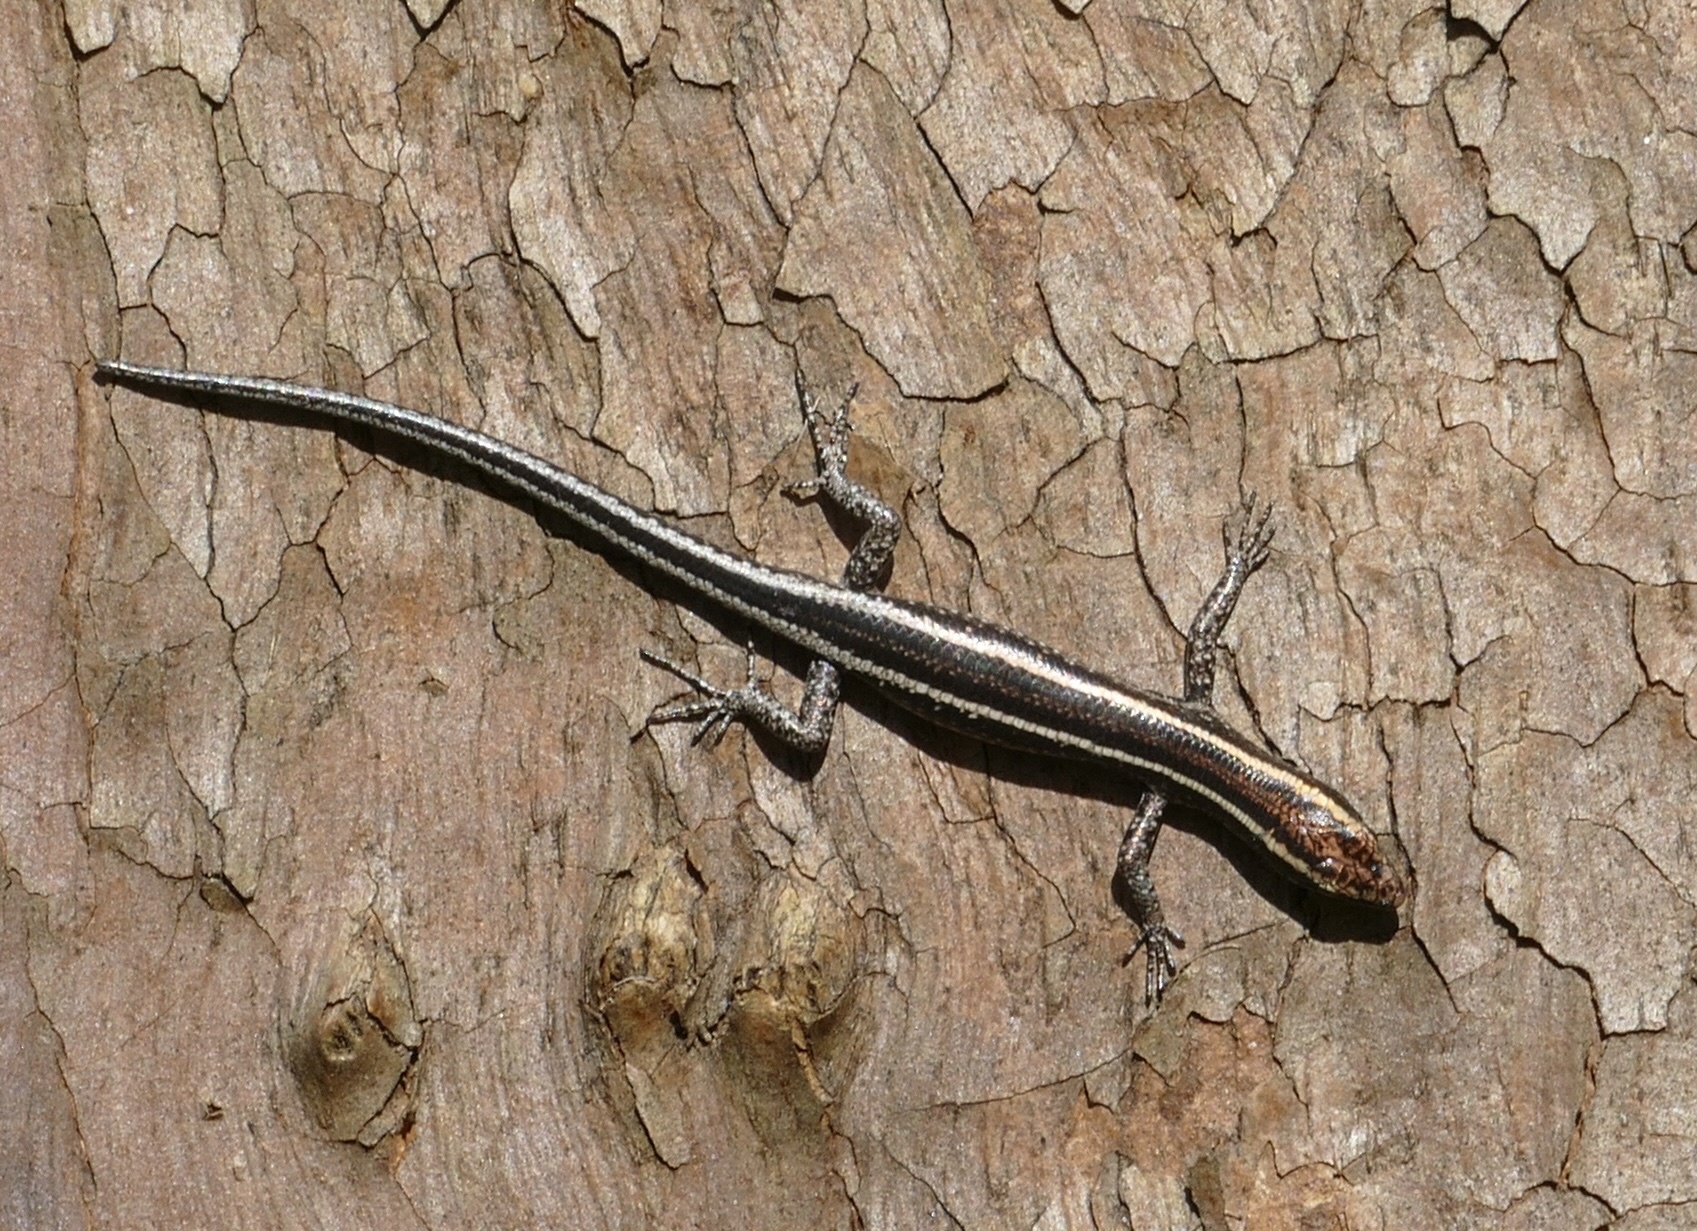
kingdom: Animalia
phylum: Chordata
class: Squamata
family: Scincidae
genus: Cryptoblepharus
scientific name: Cryptoblepharus pulcher
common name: Elegant snake-eyed skink
